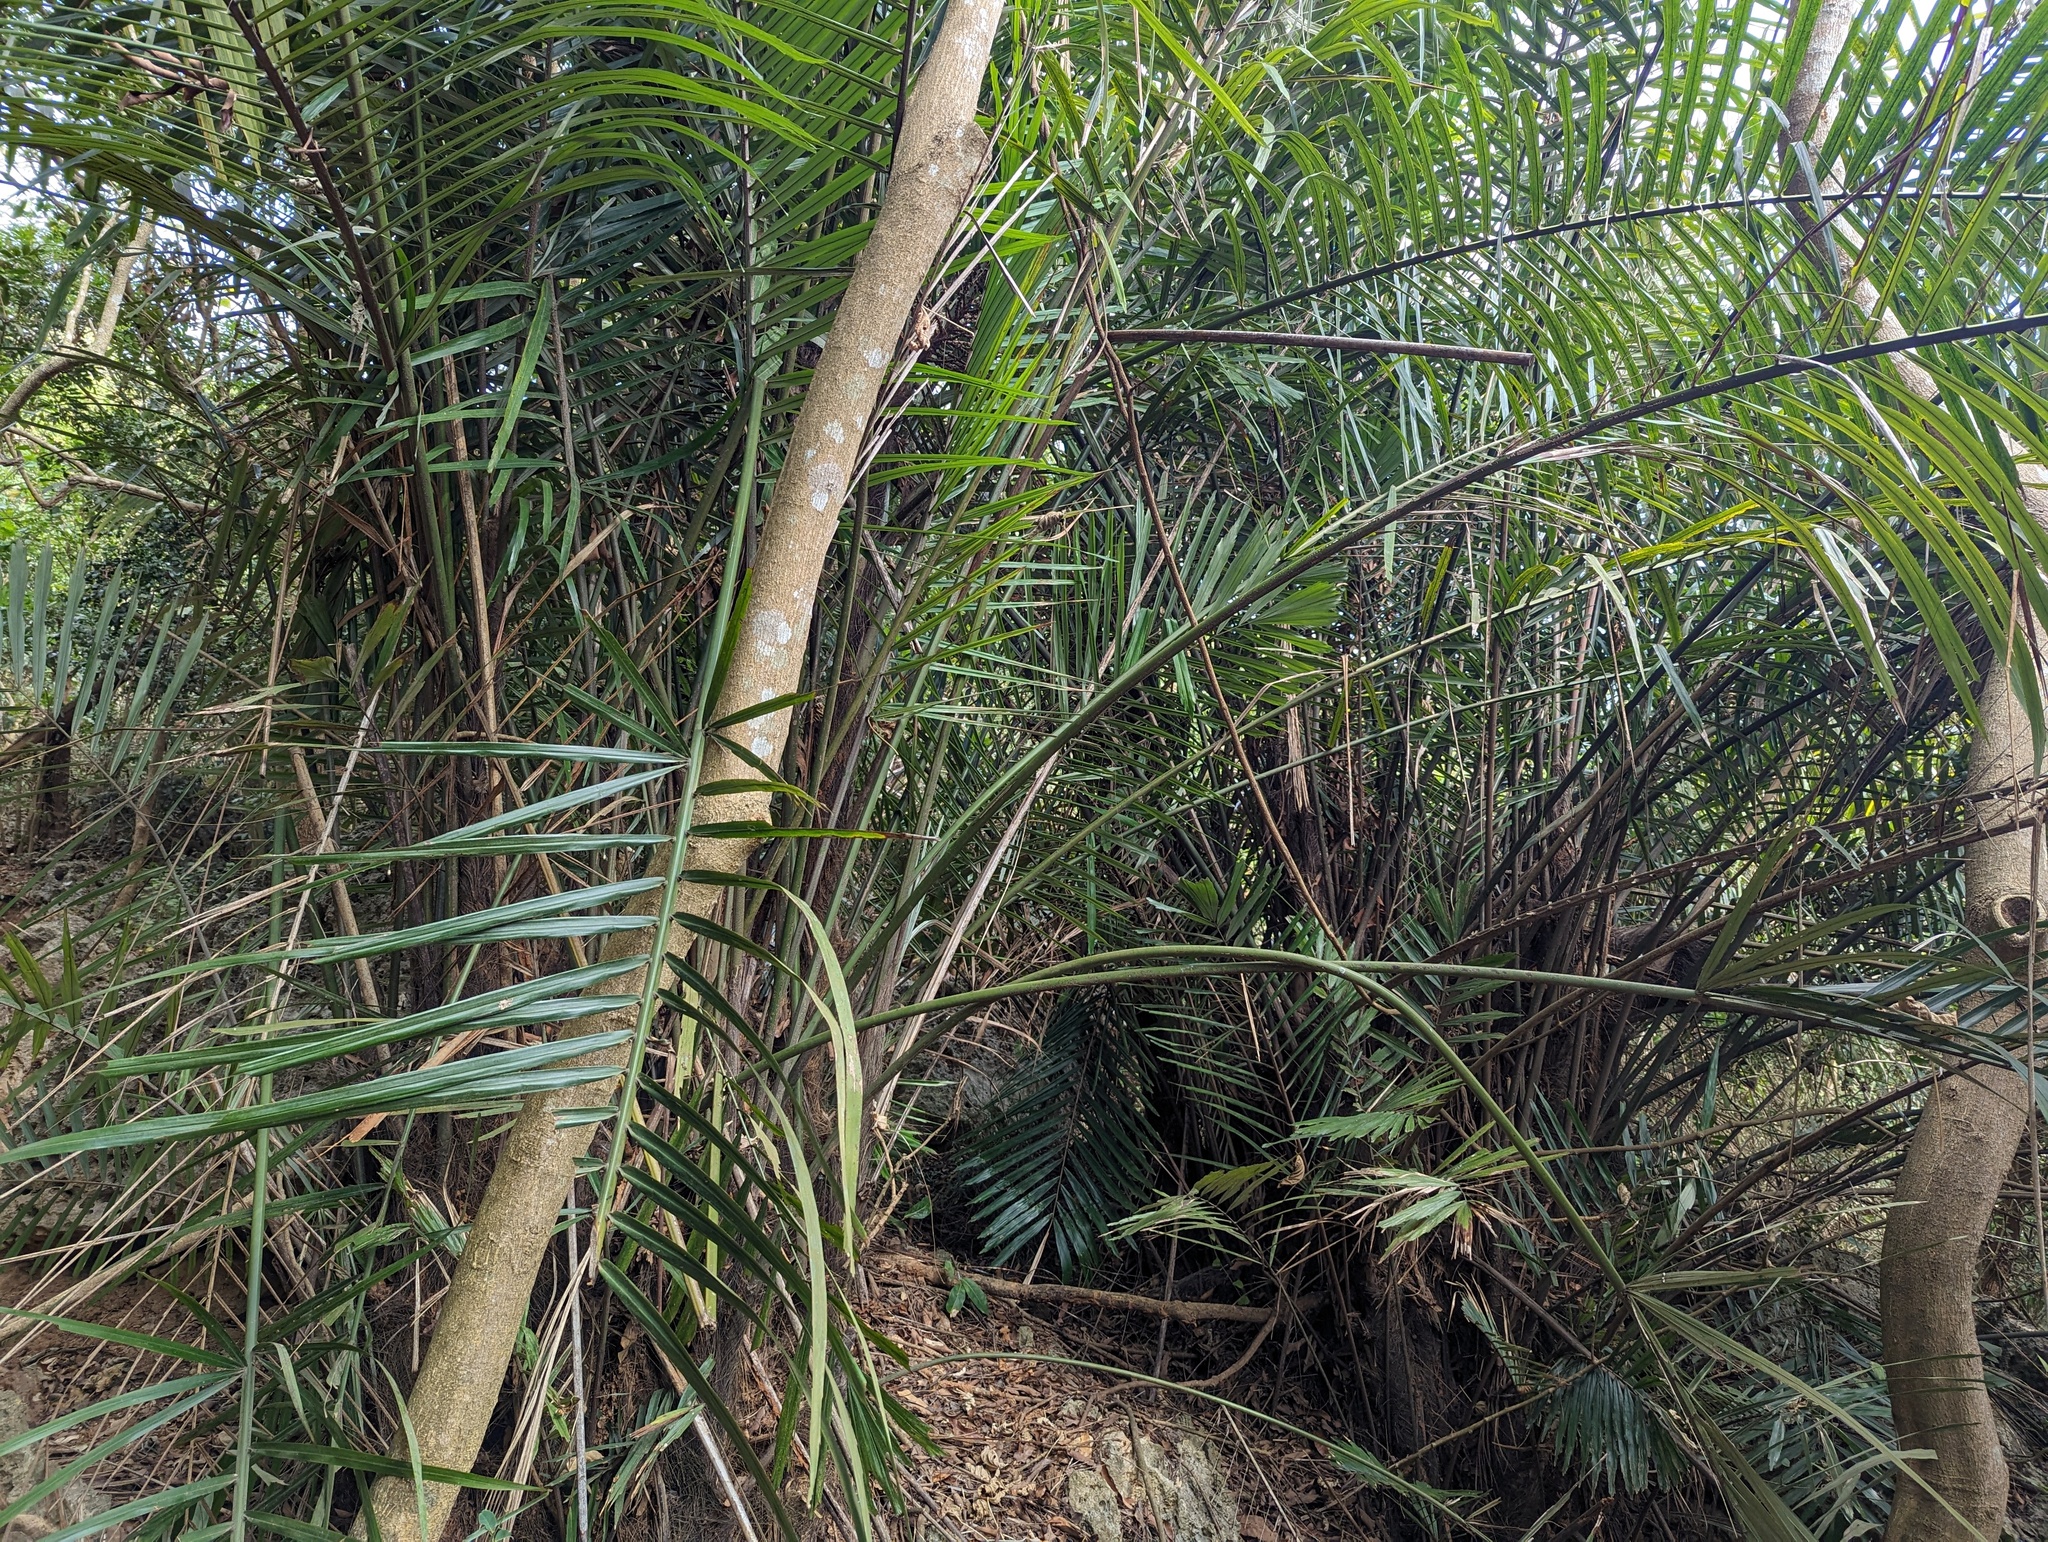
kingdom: Plantae
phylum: Tracheophyta
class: Liliopsida
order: Arecales
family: Arecaceae
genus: Arenga
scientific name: Arenga engleri
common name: Formosan sugar palm
